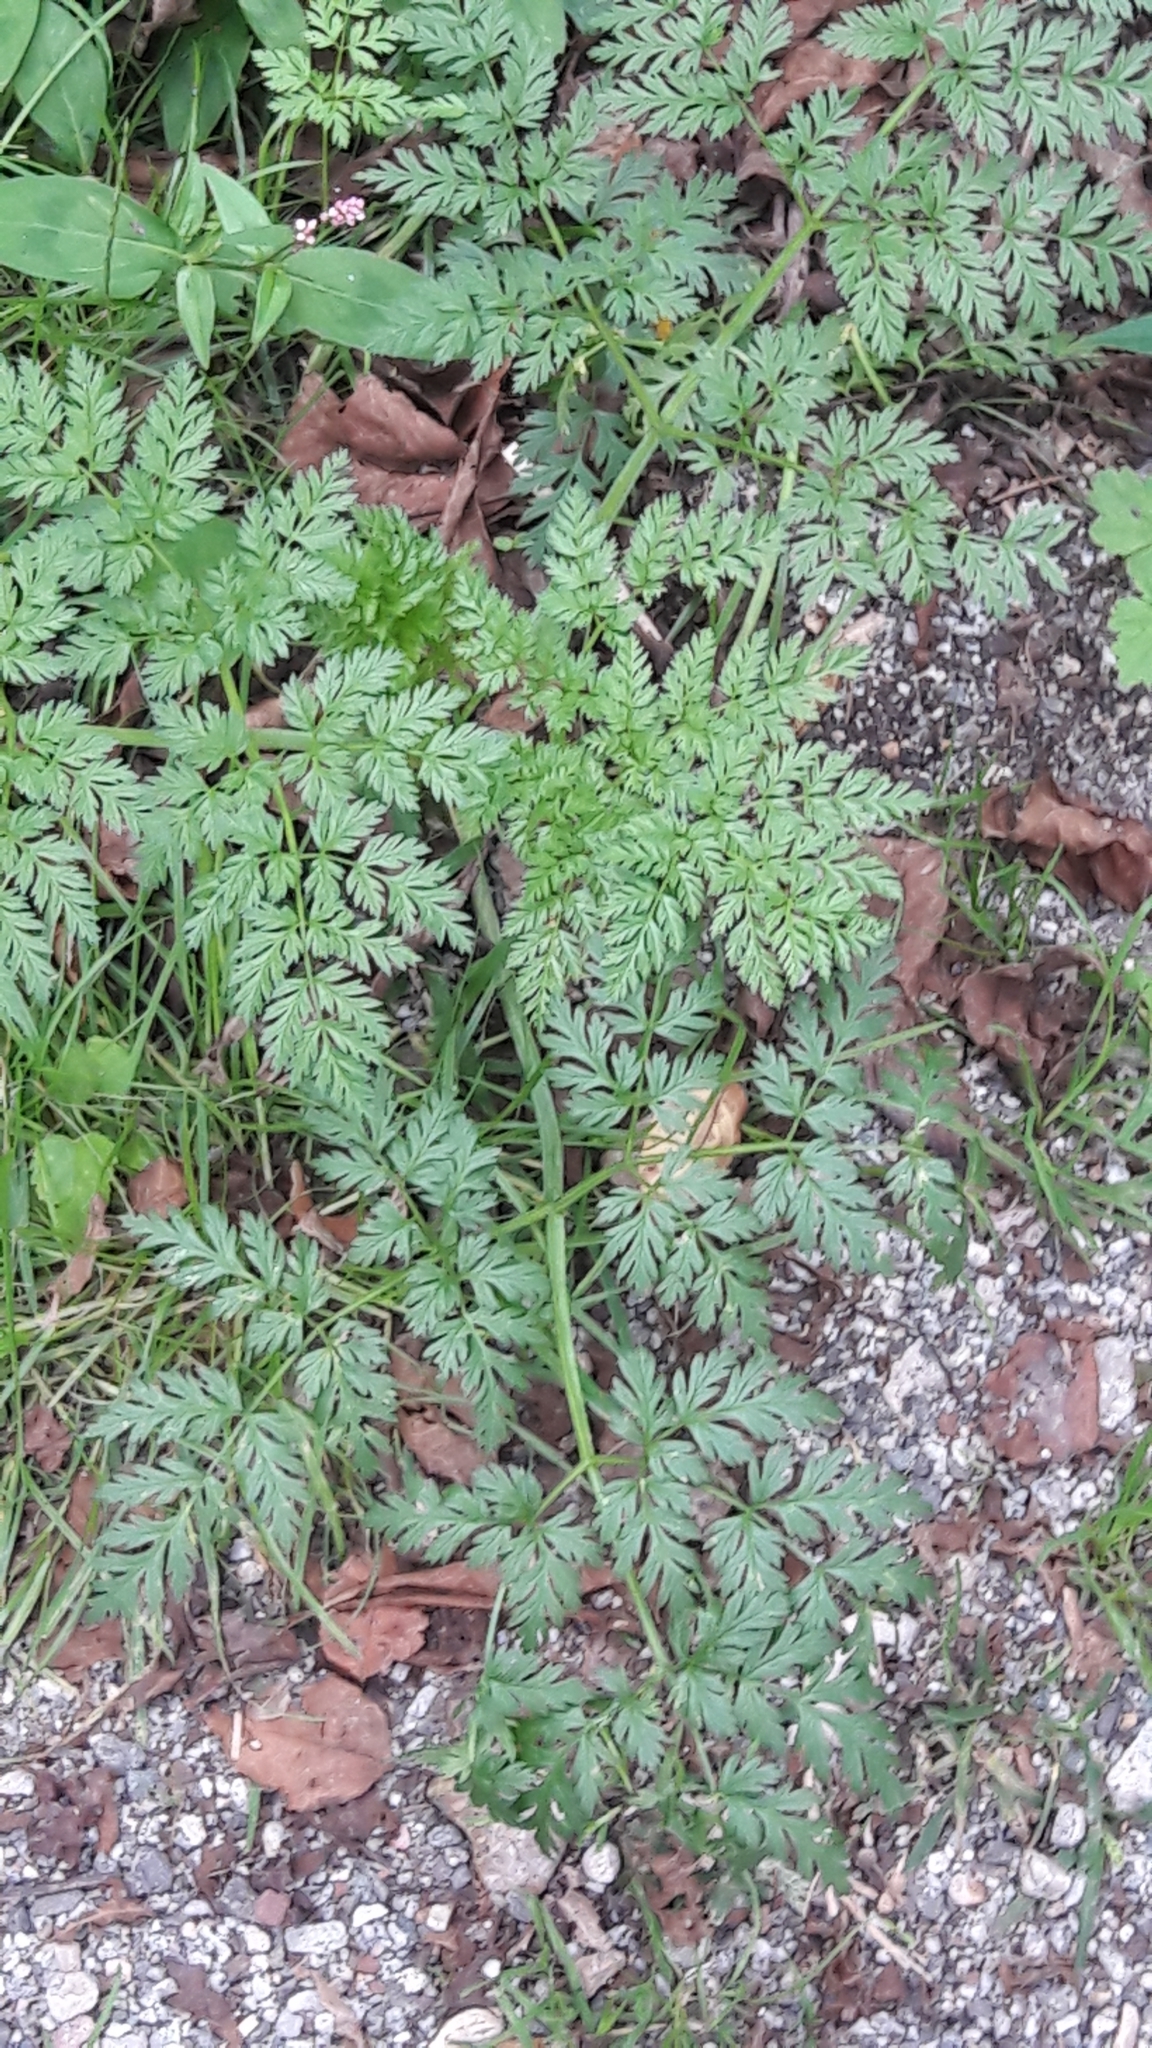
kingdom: Plantae
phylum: Tracheophyta
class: Magnoliopsida
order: Apiales
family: Apiaceae
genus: Conium
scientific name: Conium maculatum
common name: Hemlock
